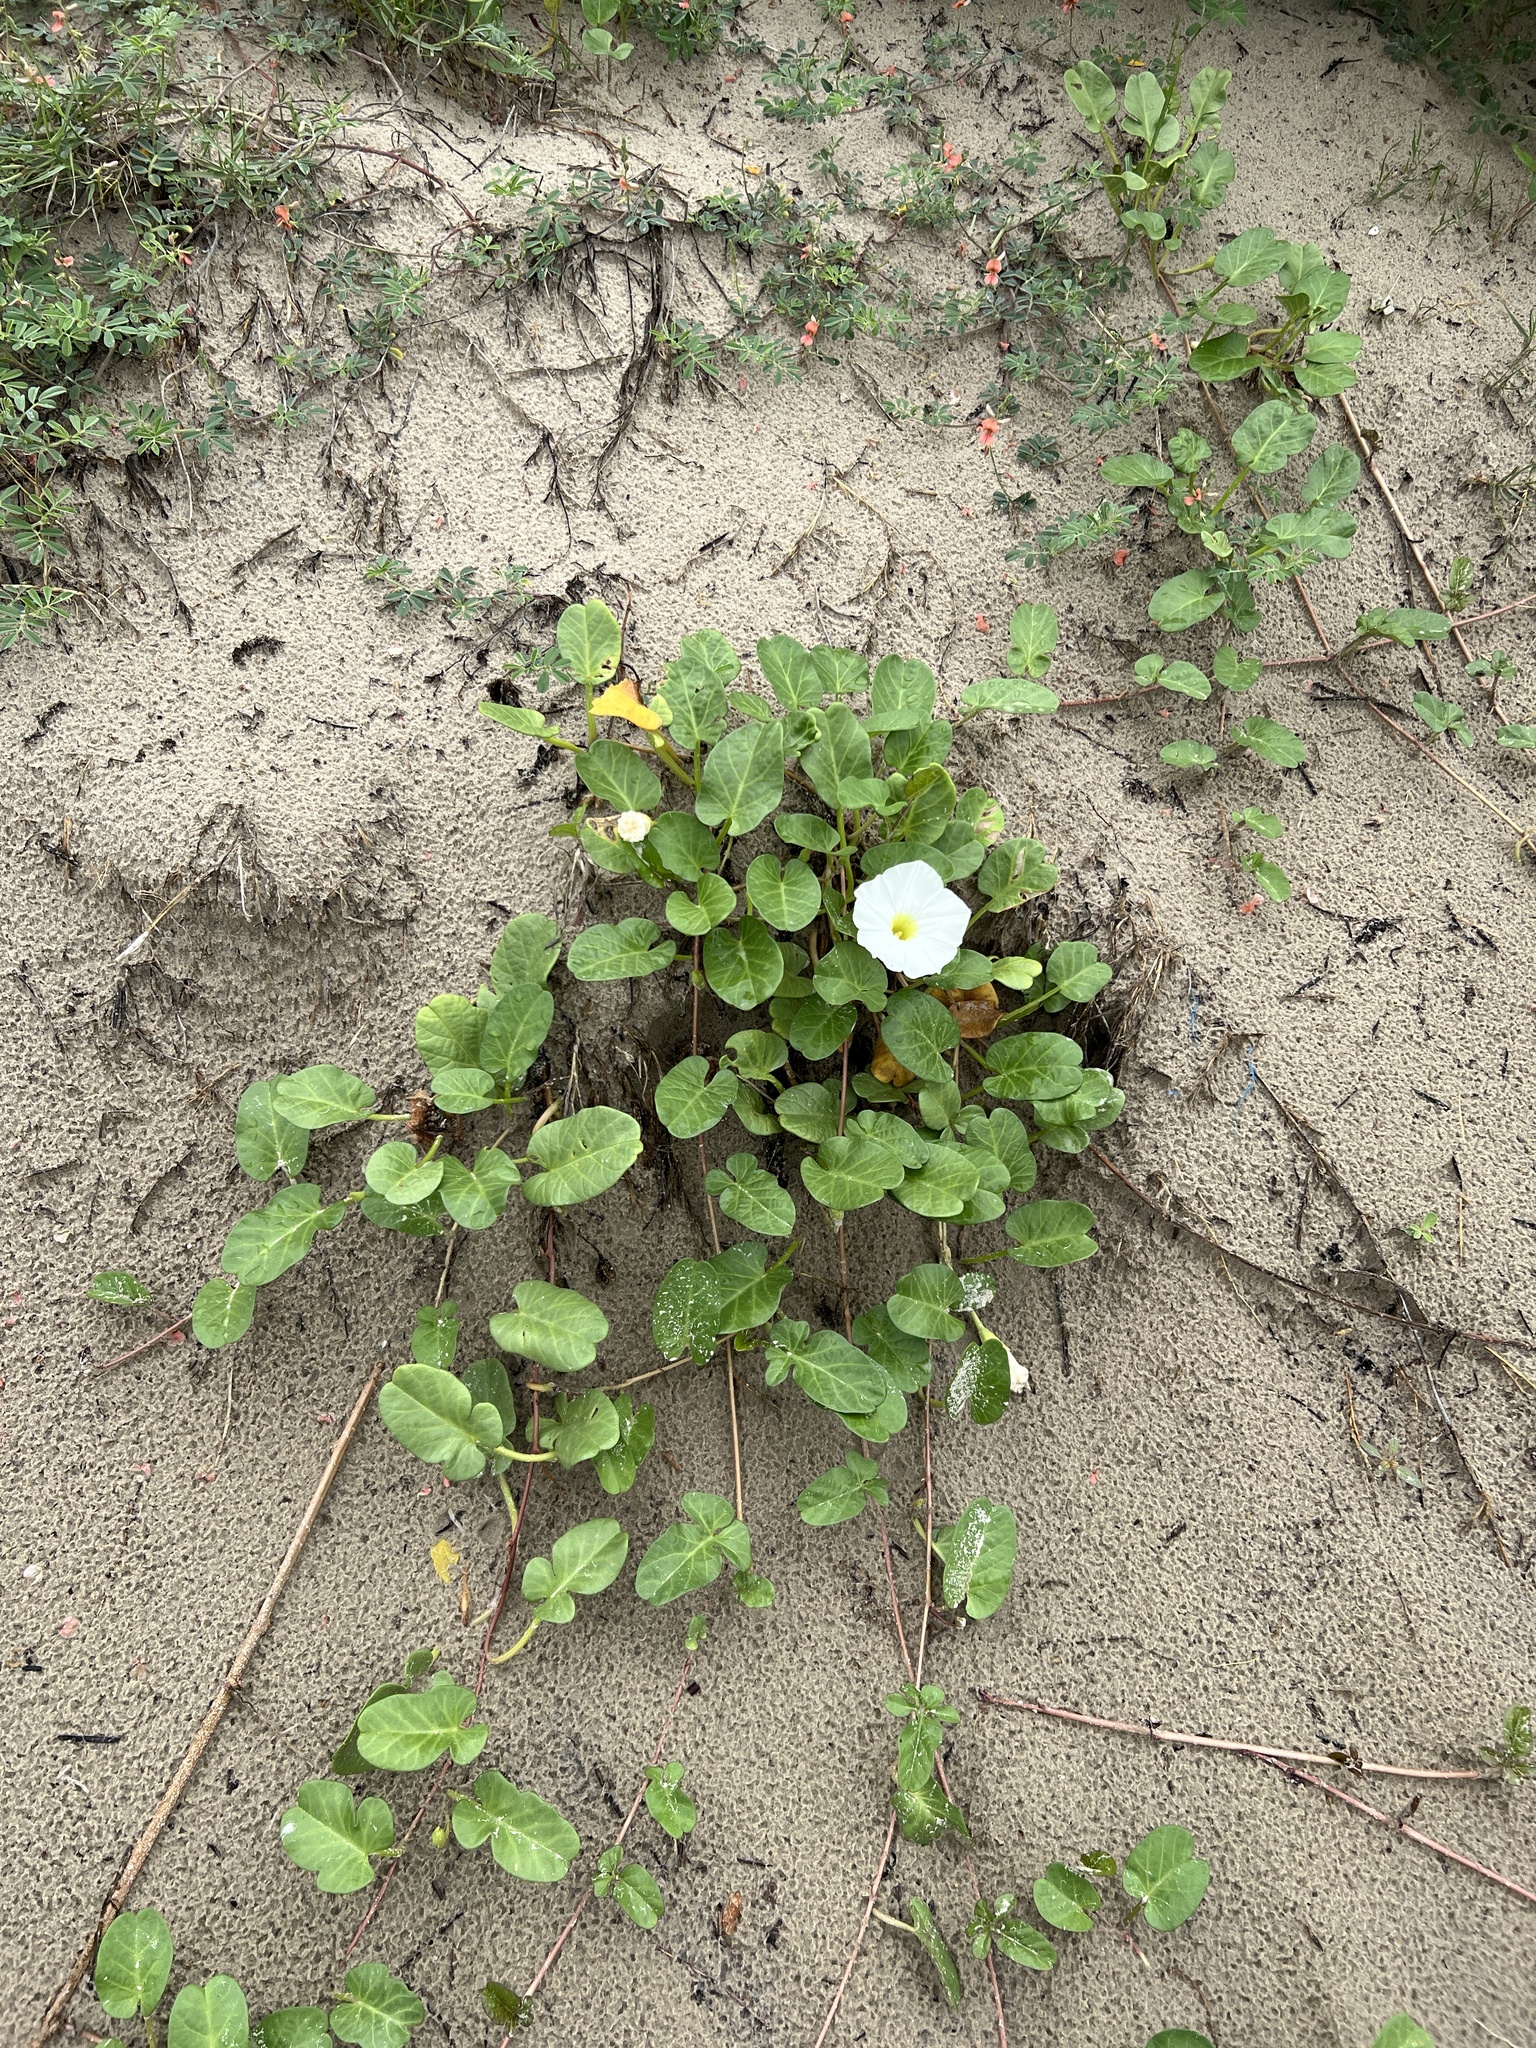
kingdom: Plantae
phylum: Tracheophyta
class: Magnoliopsida
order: Solanales
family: Convolvulaceae
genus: Ipomoea
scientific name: Ipomoea imperati
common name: Fiddle-leaf morning-glory
